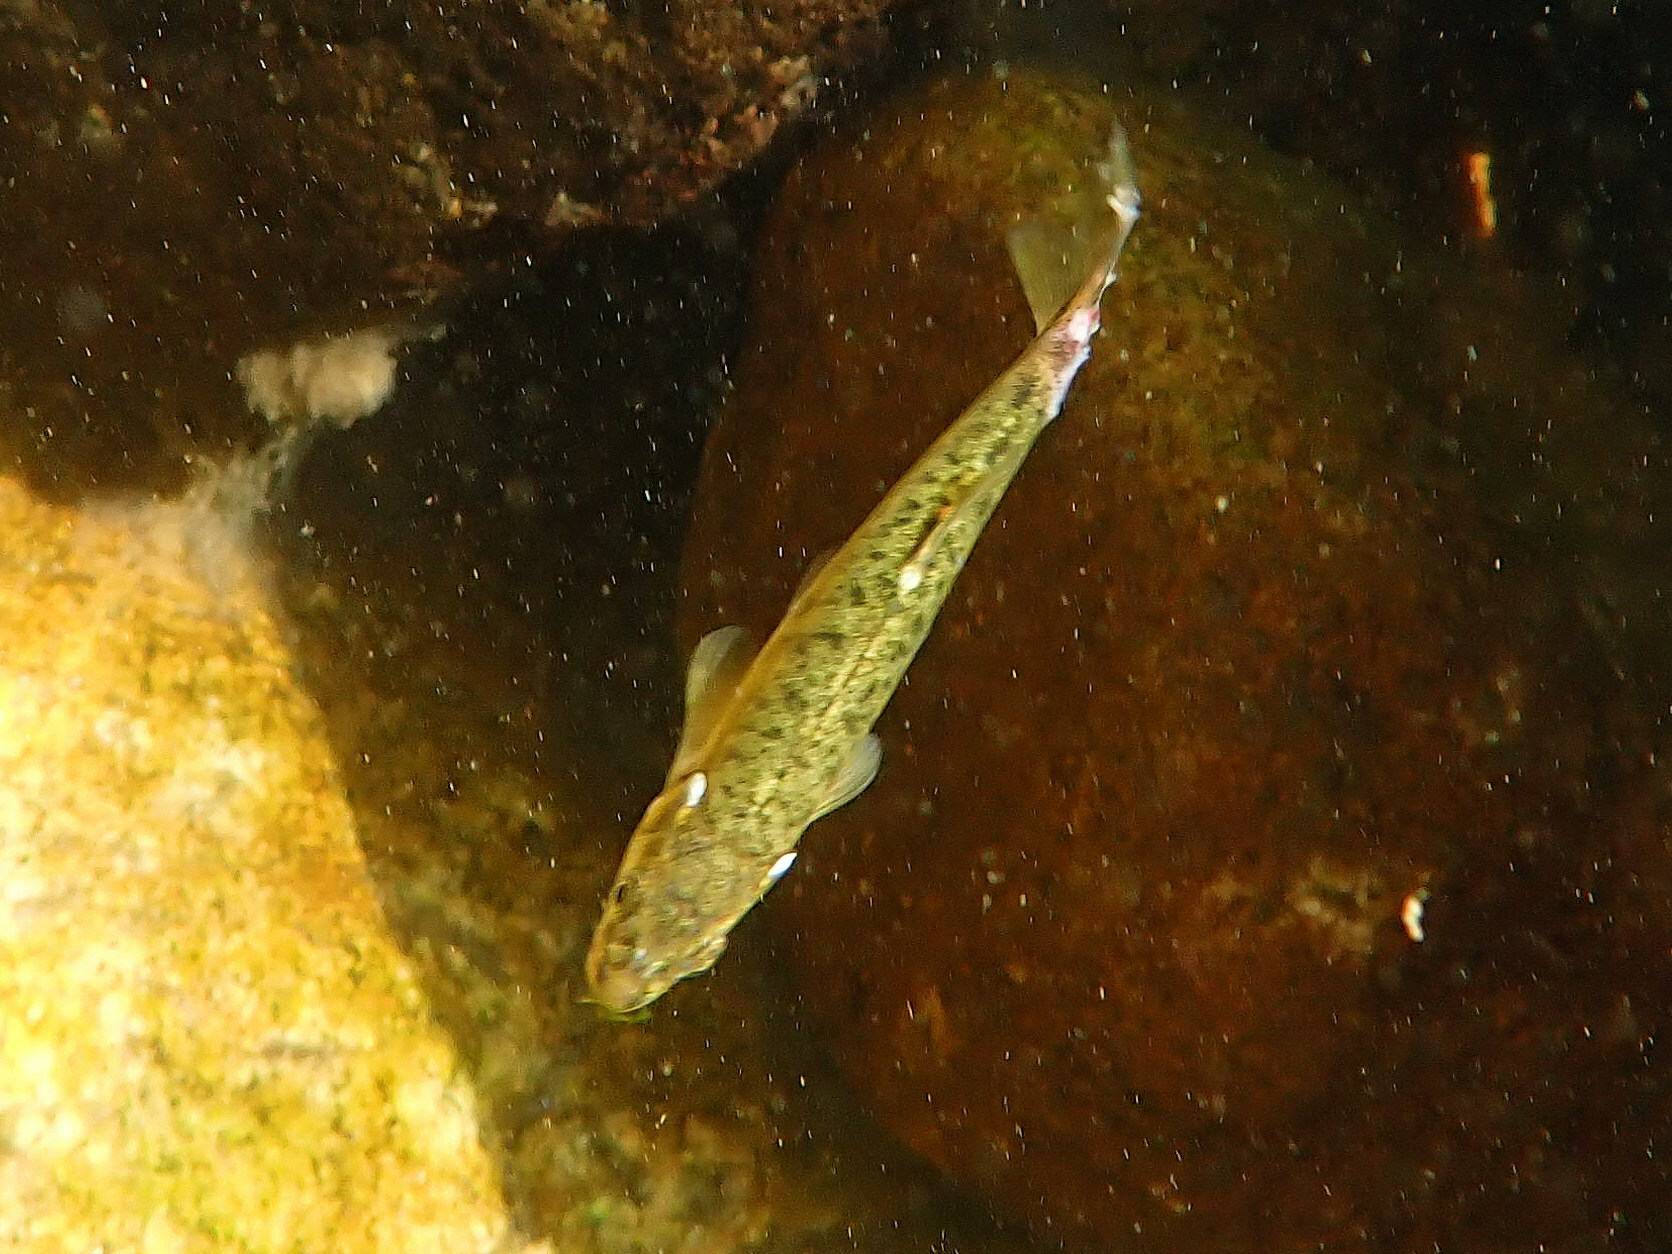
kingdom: Animalia
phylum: Chordata
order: Cypriniformes
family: Cyprinidae
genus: Phoxinus
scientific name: Phoxinus septimaniae
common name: Languedoc minnow
